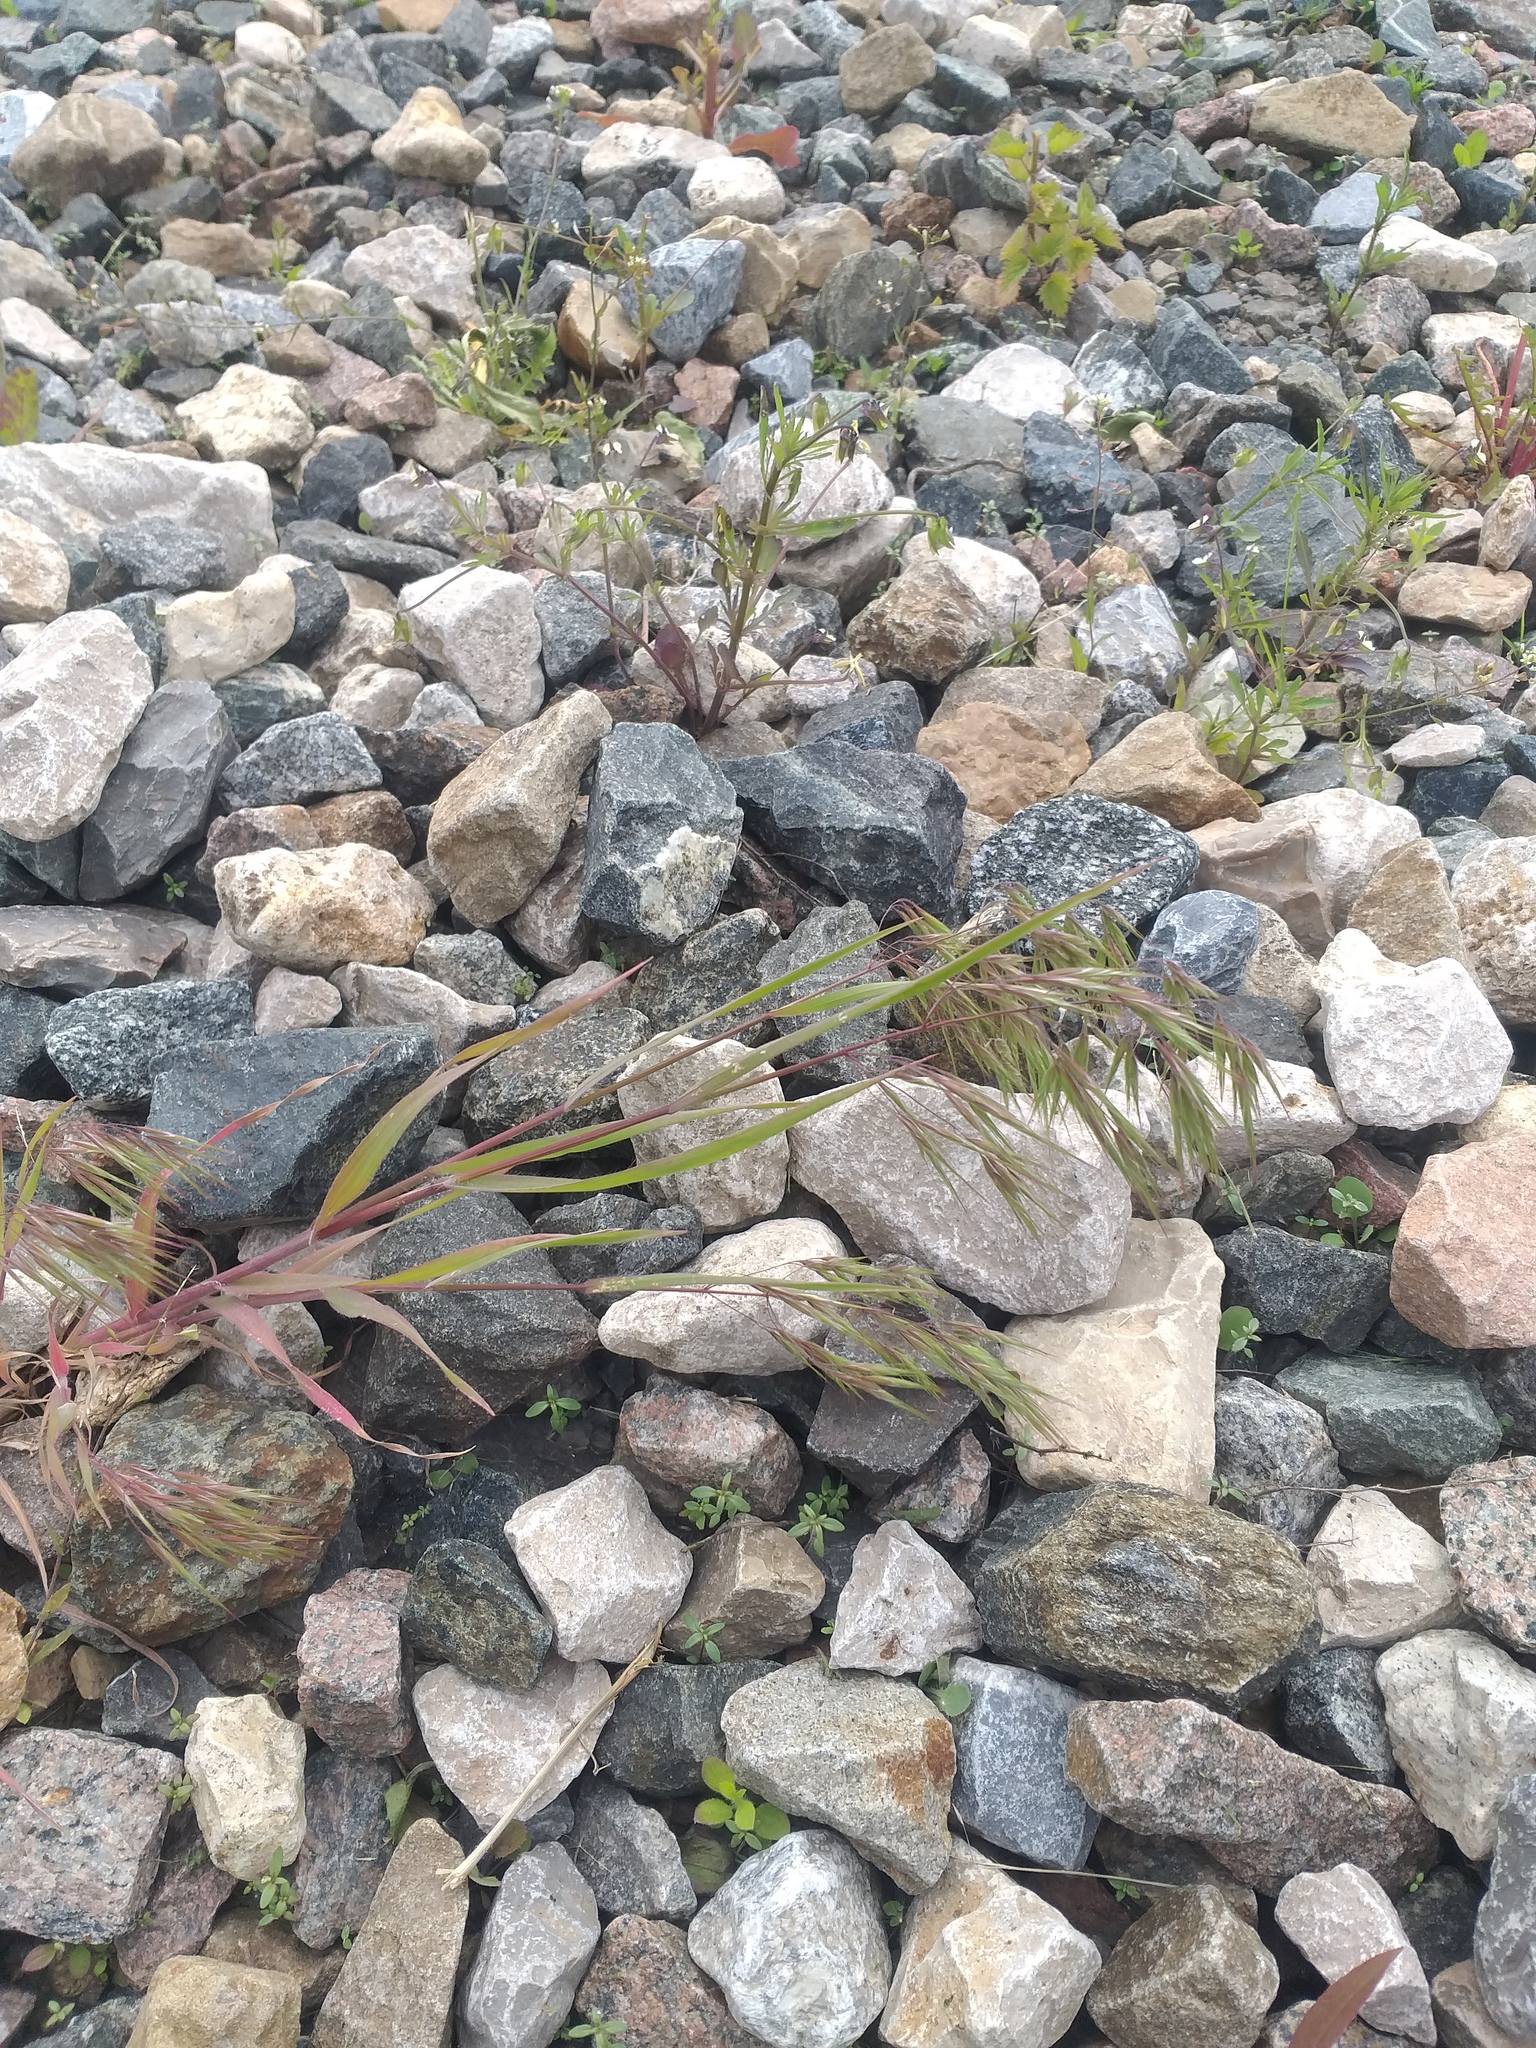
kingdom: Plantae
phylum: Tracheophyta
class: Liliopsida
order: Poales
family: Poaceae
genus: Bromus
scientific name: Bromus tectorum
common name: Cheatgrass
